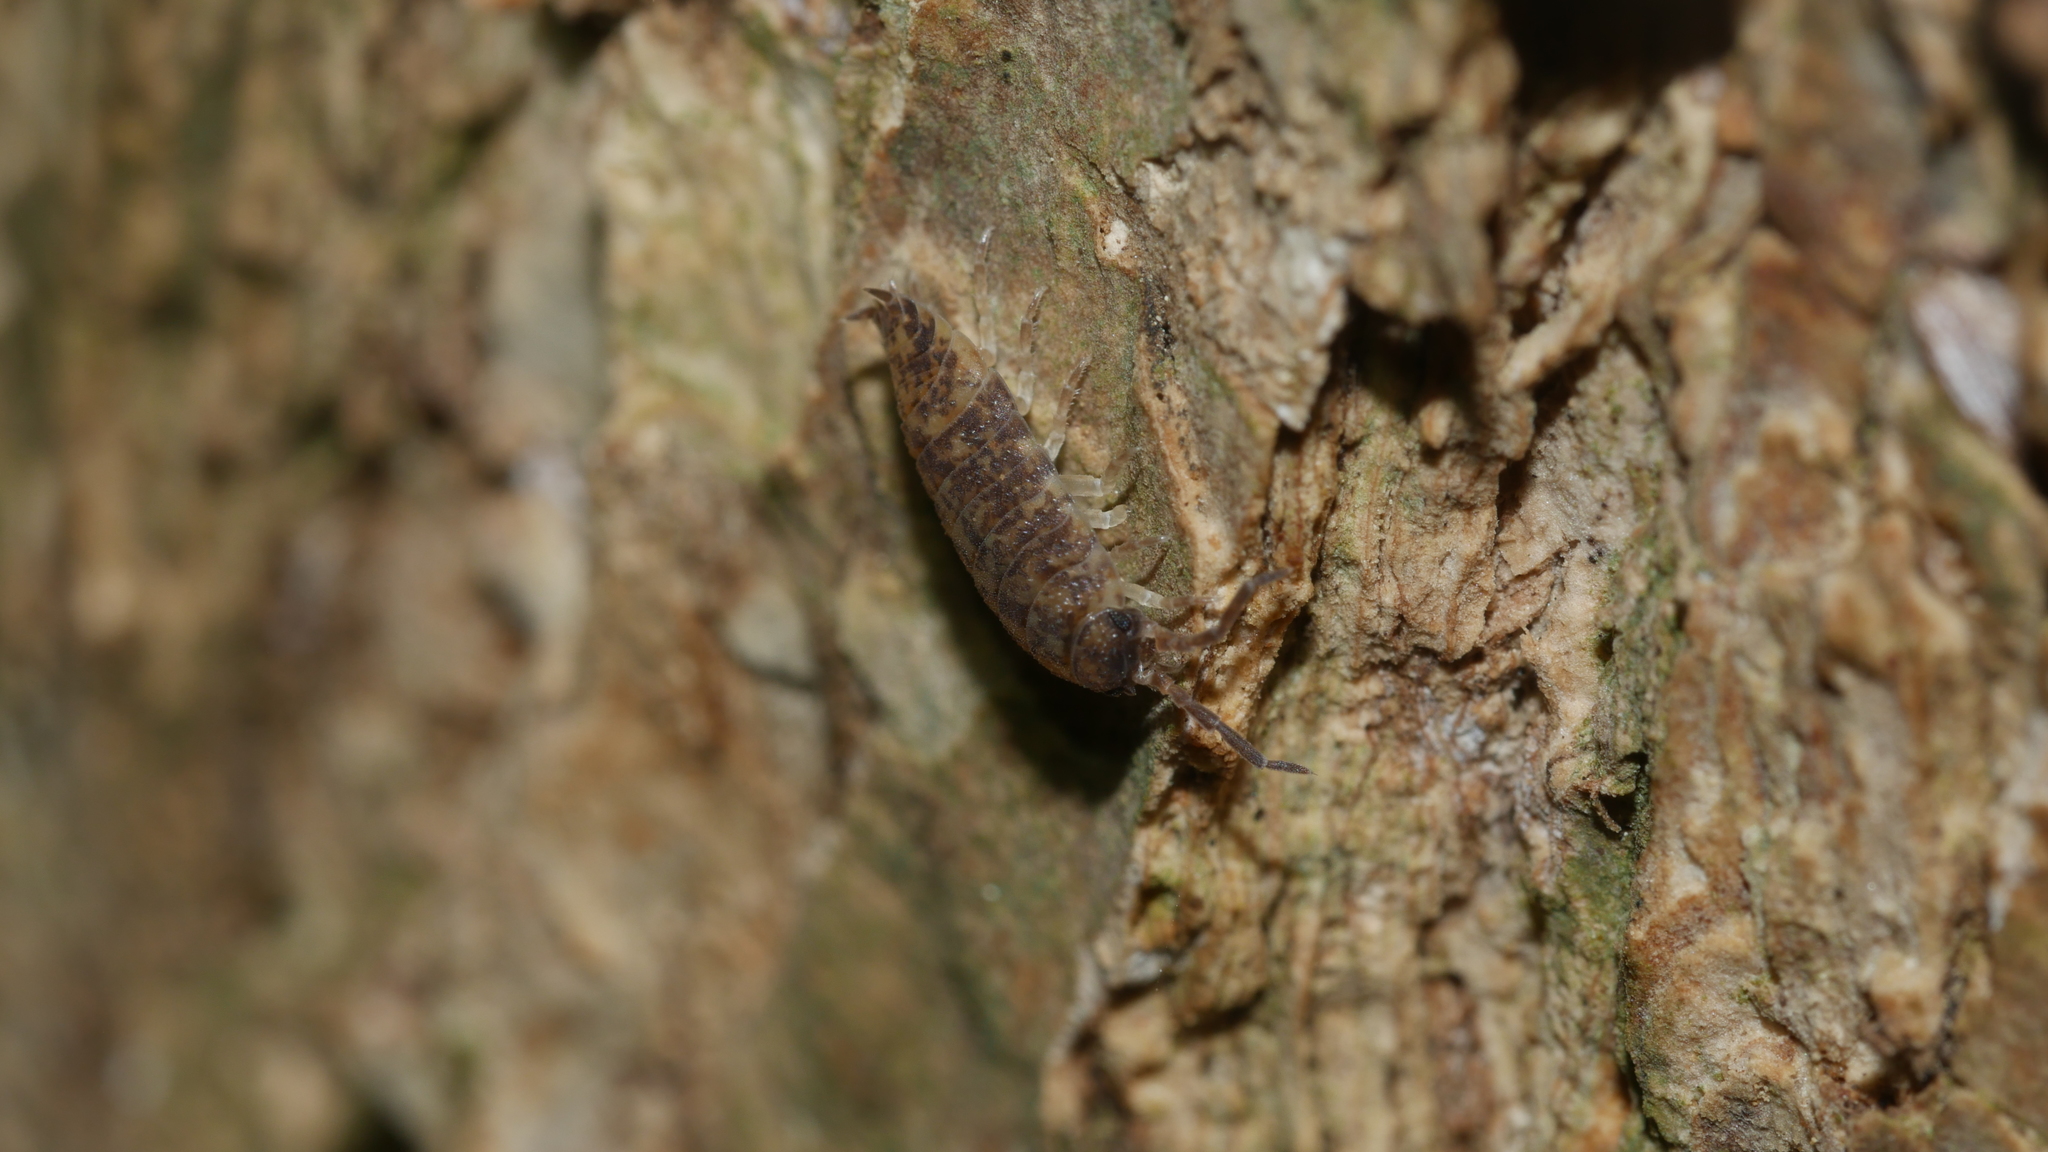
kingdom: Animalia
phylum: Arthropoda
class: Malacostraca
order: Isopoda
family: Porcellionidae
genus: Porcellio
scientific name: Porcellio scaber
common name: Common rough woodlouse
